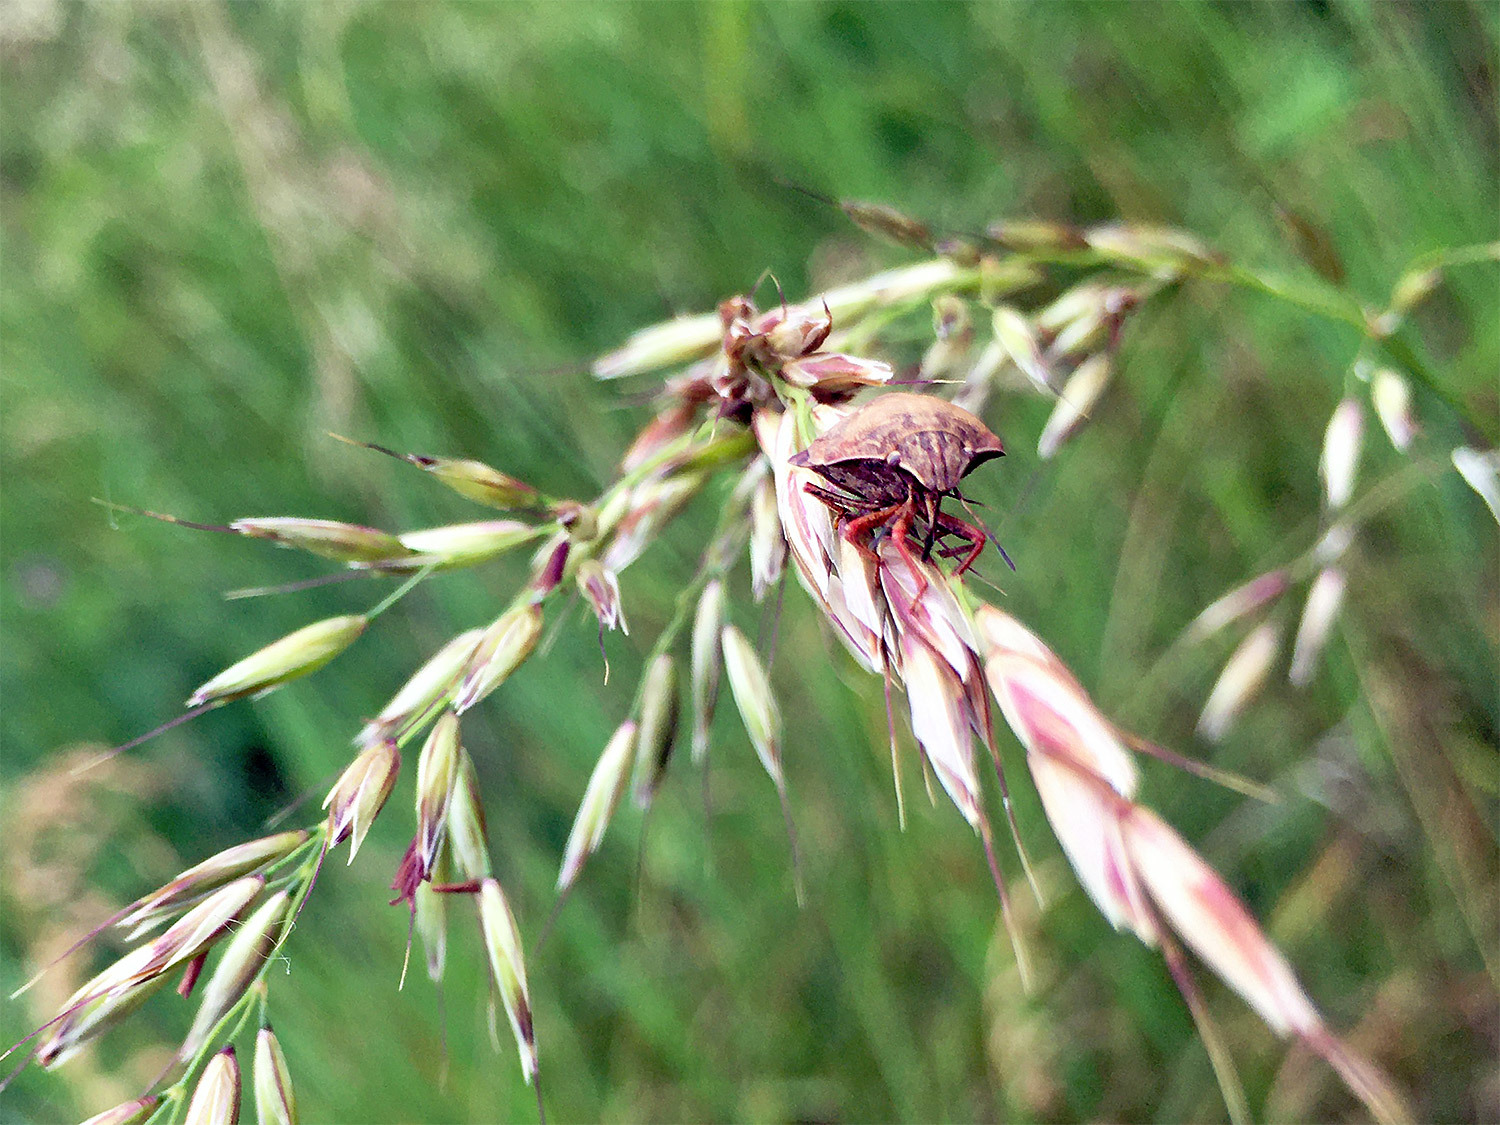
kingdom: Animalia
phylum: Arthropoda
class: Insecta
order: Hemiptera
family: Scutelleridae
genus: Eurygaster
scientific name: Eurygaster maura
